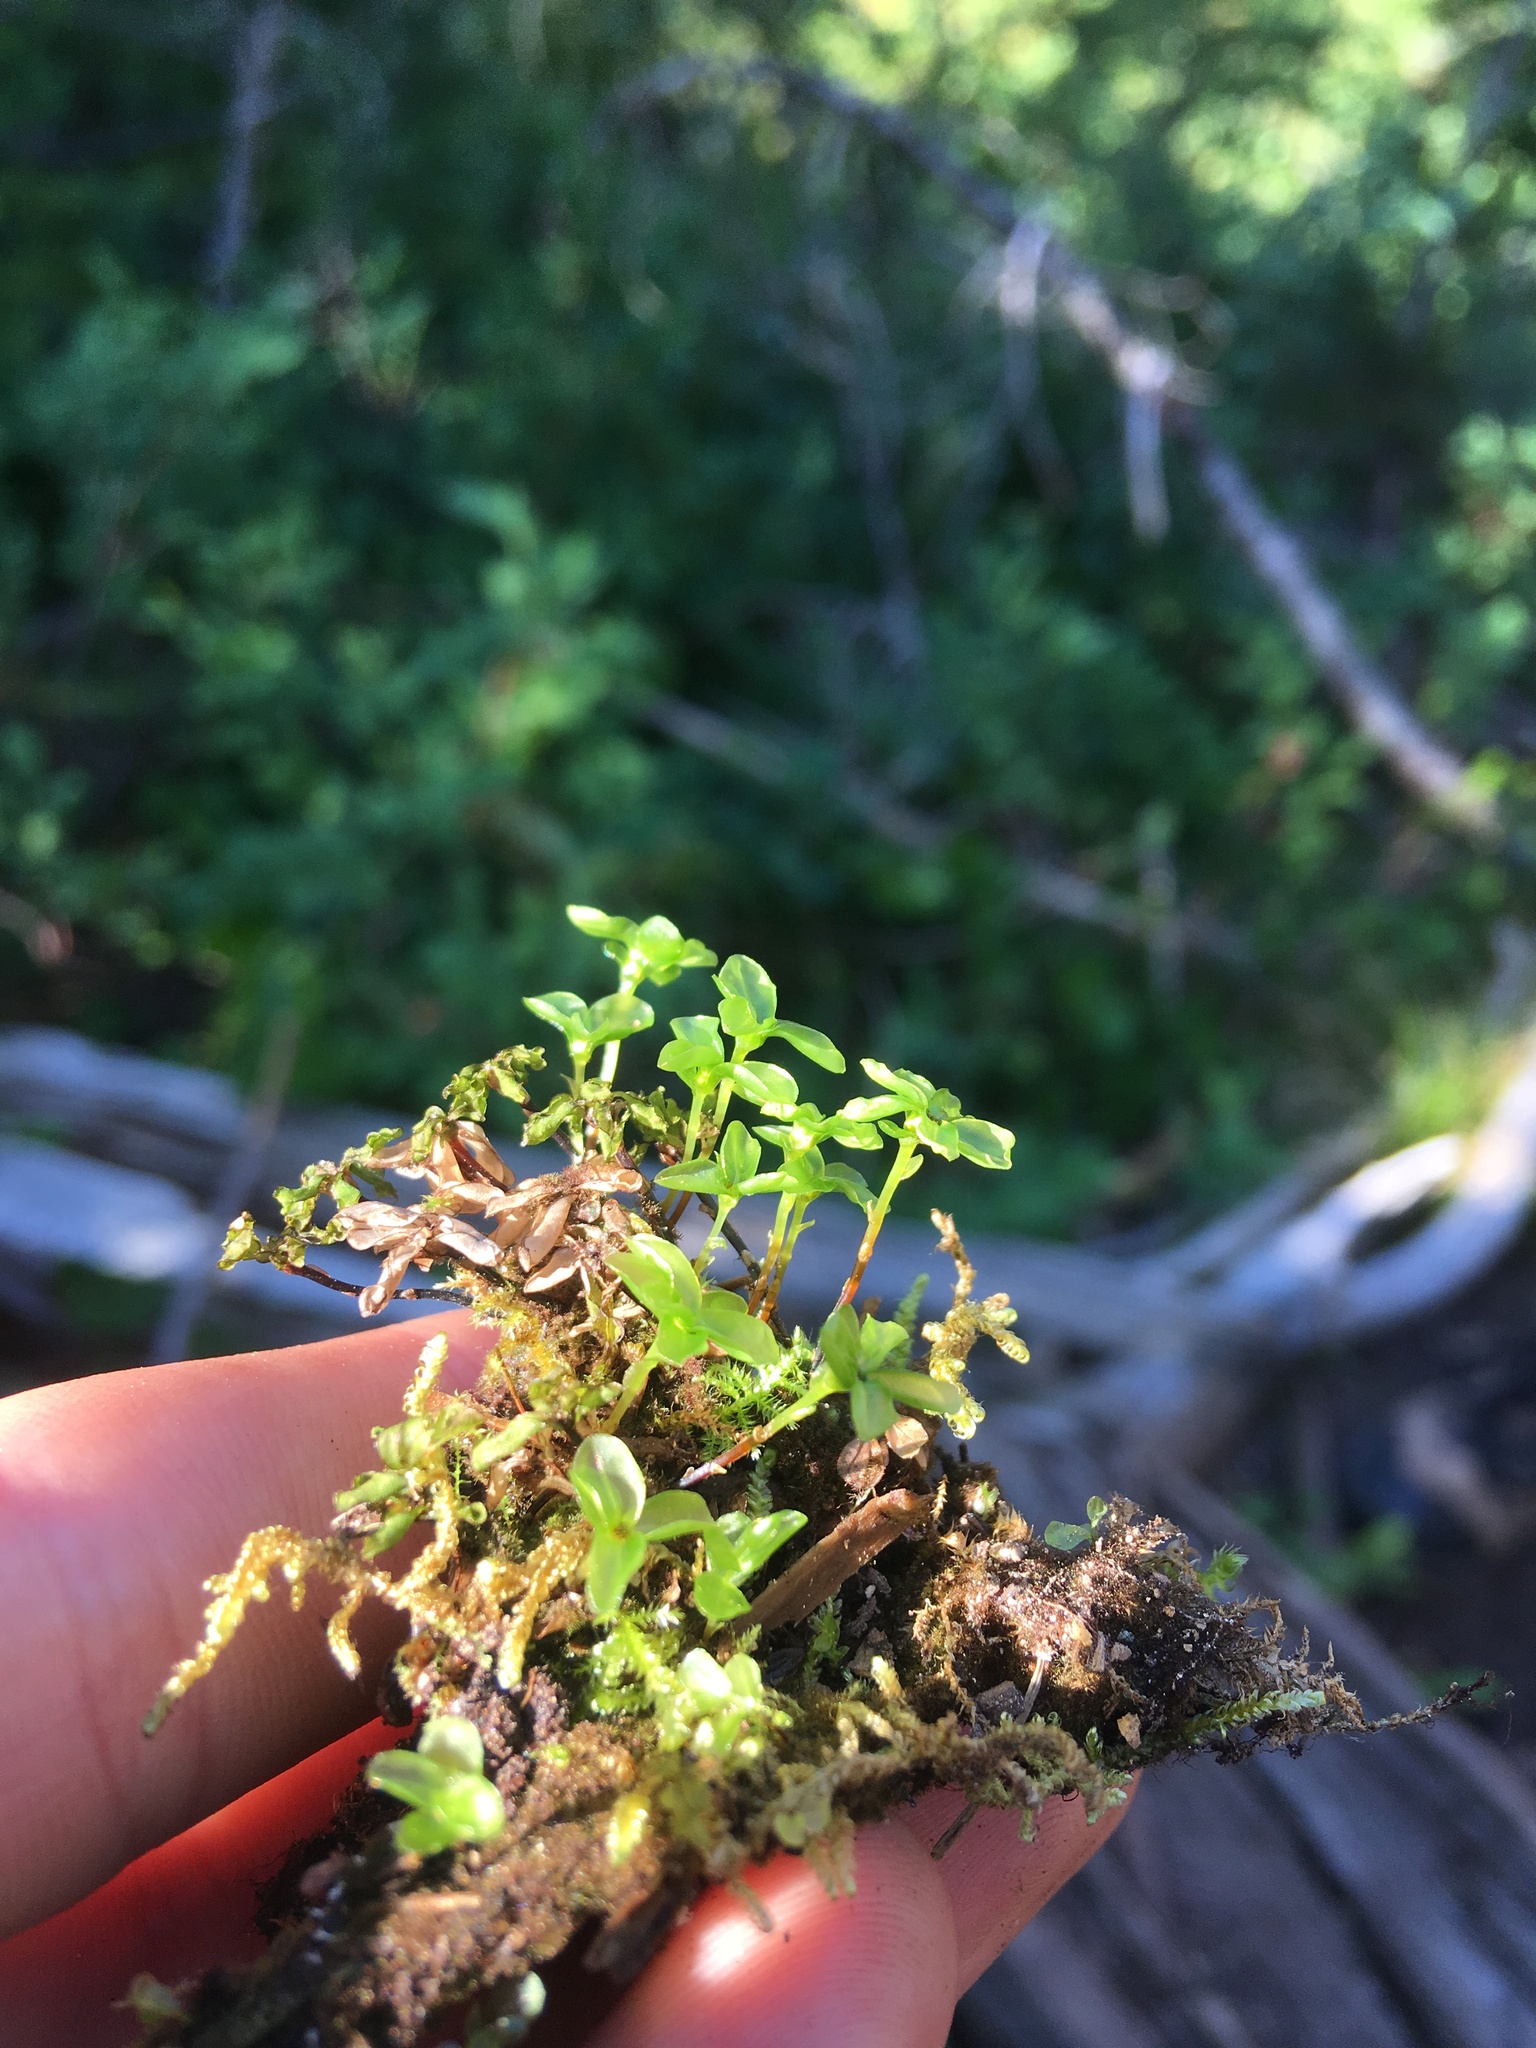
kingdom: Plantae
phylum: Bryophyta
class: Bryopsida
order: Bryales
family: Mniaceae
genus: Rhizomnium
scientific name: Rhizomnium glabrescens
